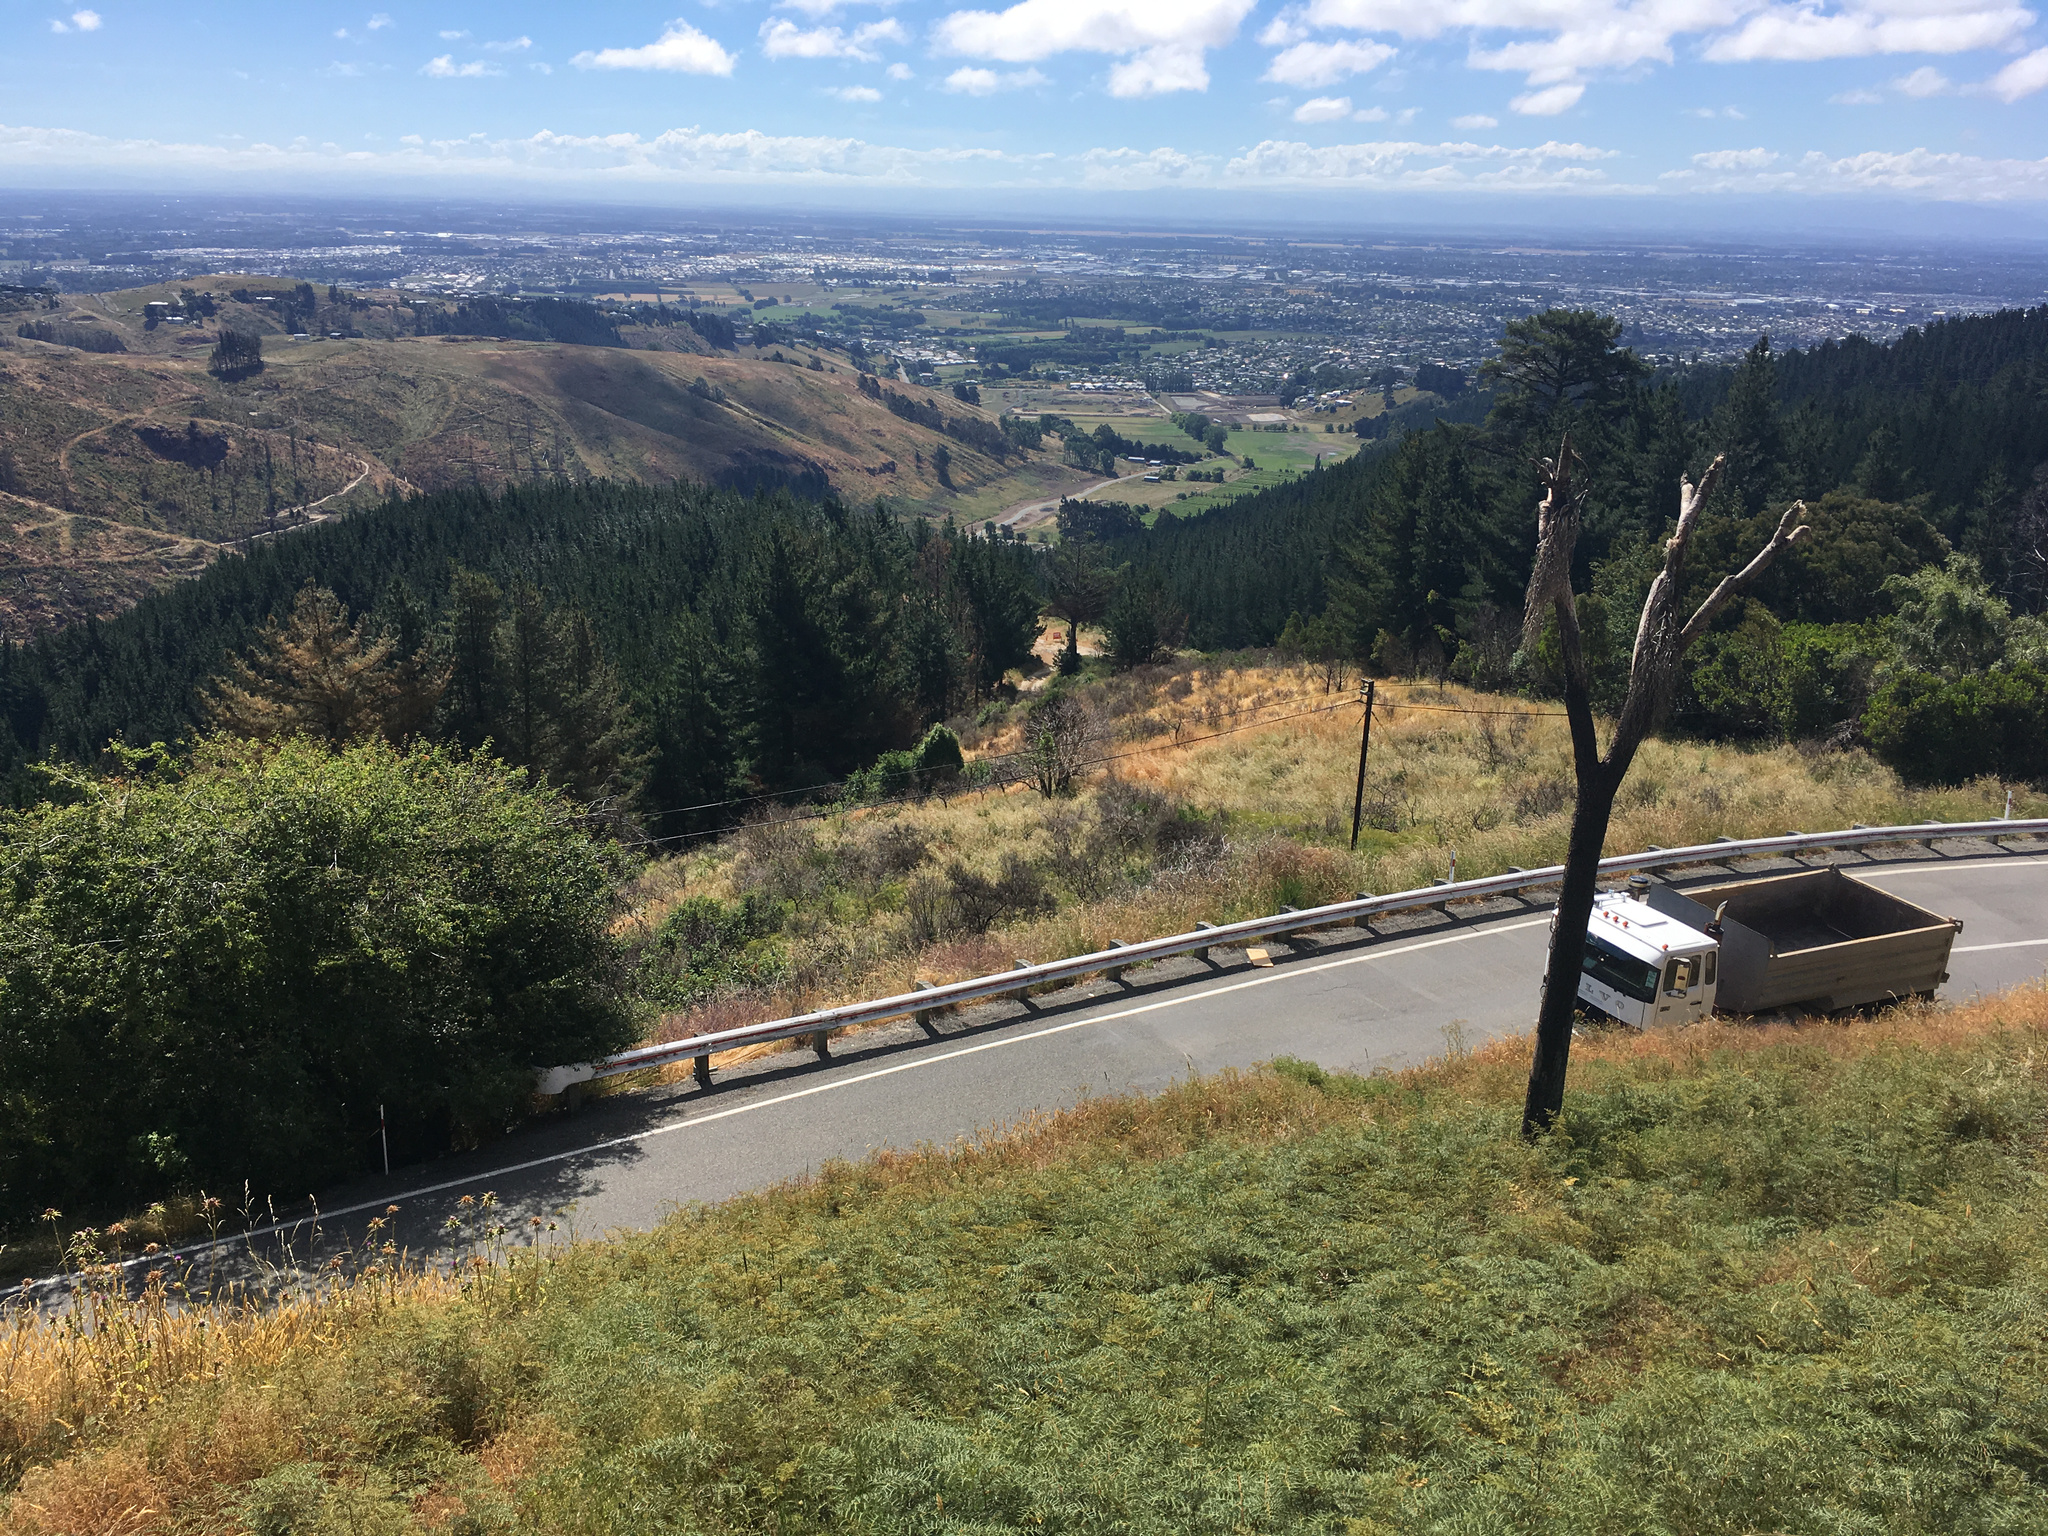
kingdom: Plantae
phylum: Tracheophyta
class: Liliopsida
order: Asparagales
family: Asparagaceae
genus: Cordyline
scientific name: Cordyline australis
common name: Cabbage-palm
